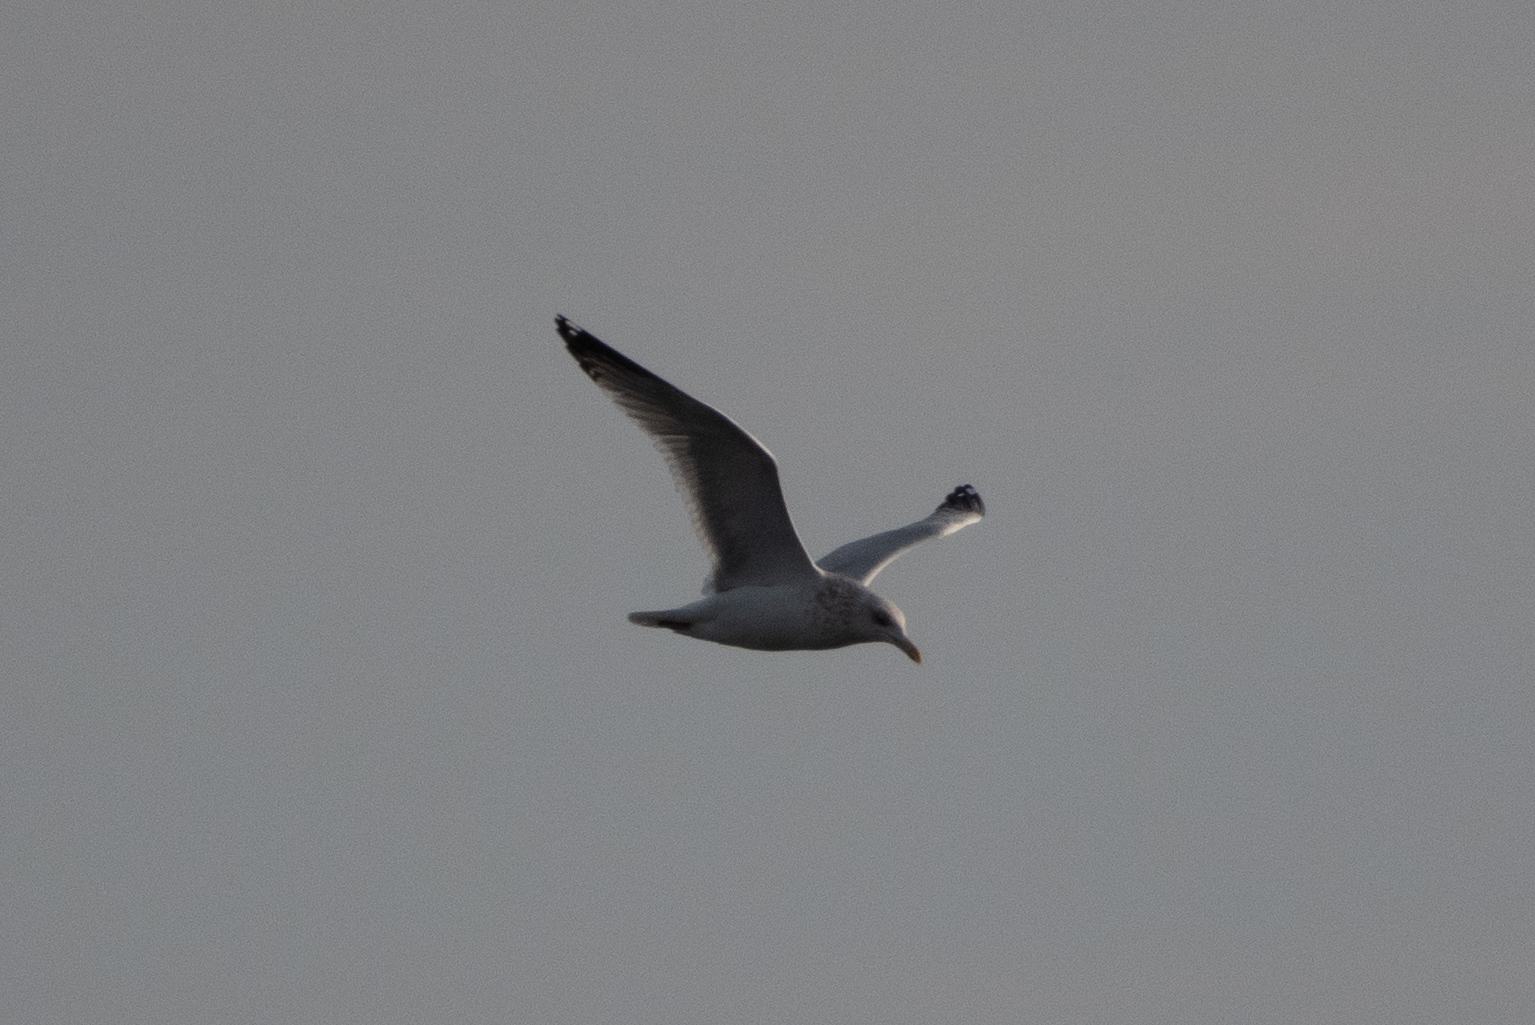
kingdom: Animalia
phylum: Chordata
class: Aves
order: Charadriiformes
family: Laridae
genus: Larus
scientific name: Larus argentatus
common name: Herring gull
